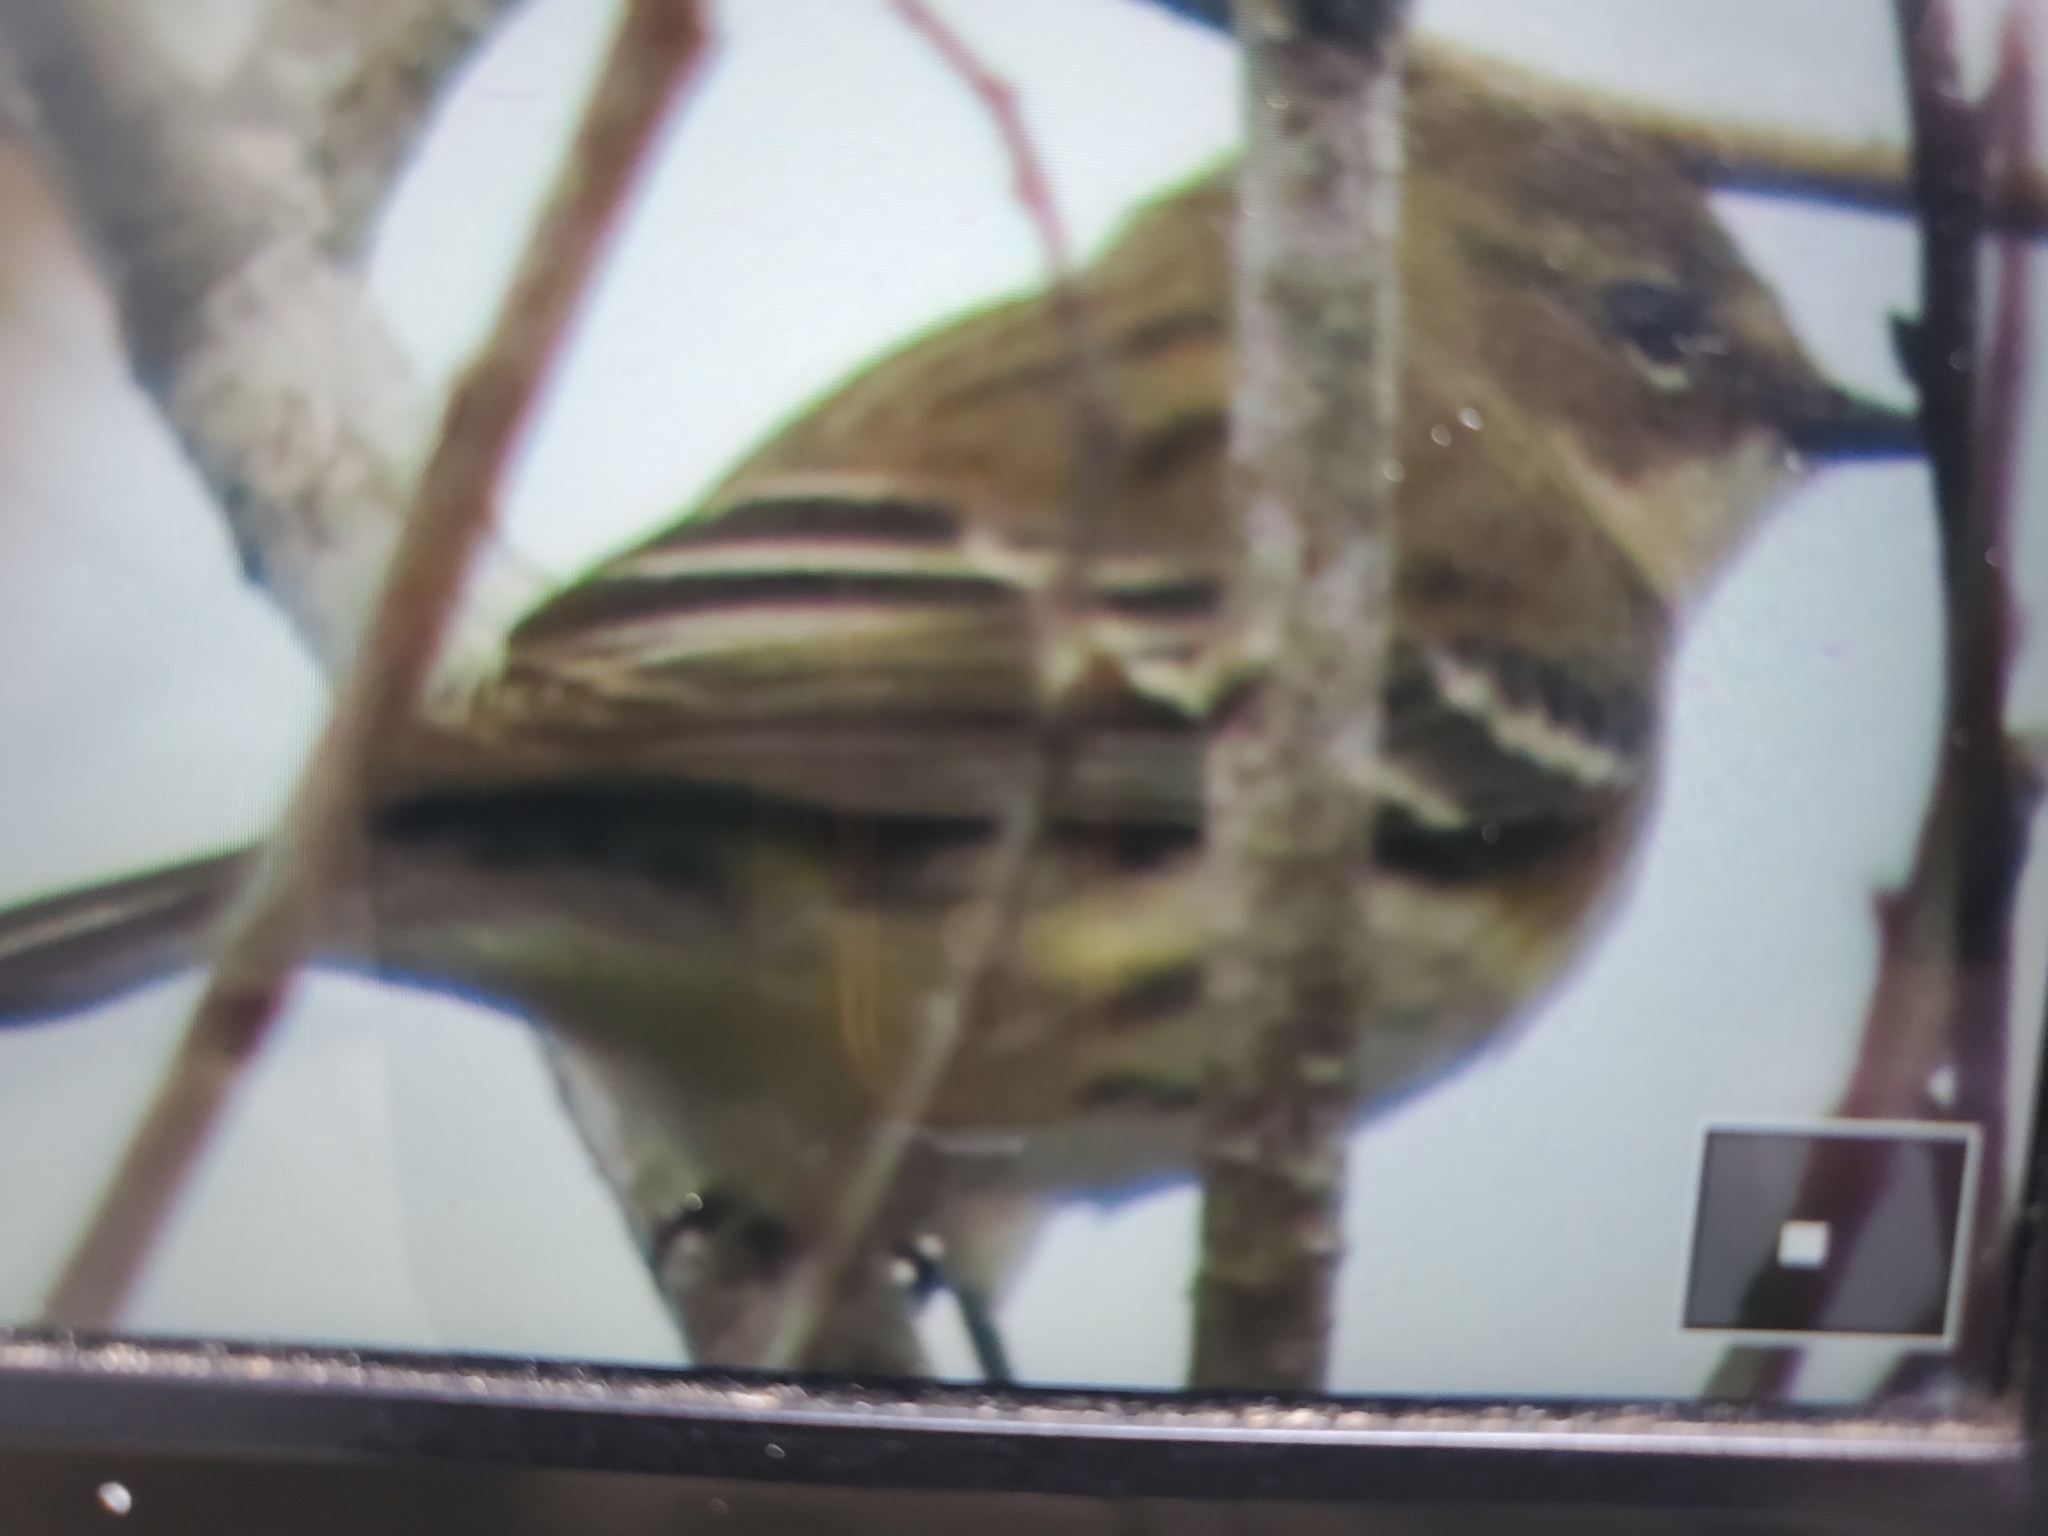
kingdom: Animalia
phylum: Chordata
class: Aves
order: Passeriformes
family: Parulidae
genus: Setophaga
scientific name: Setophaga coronata
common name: Myrtle warbler
